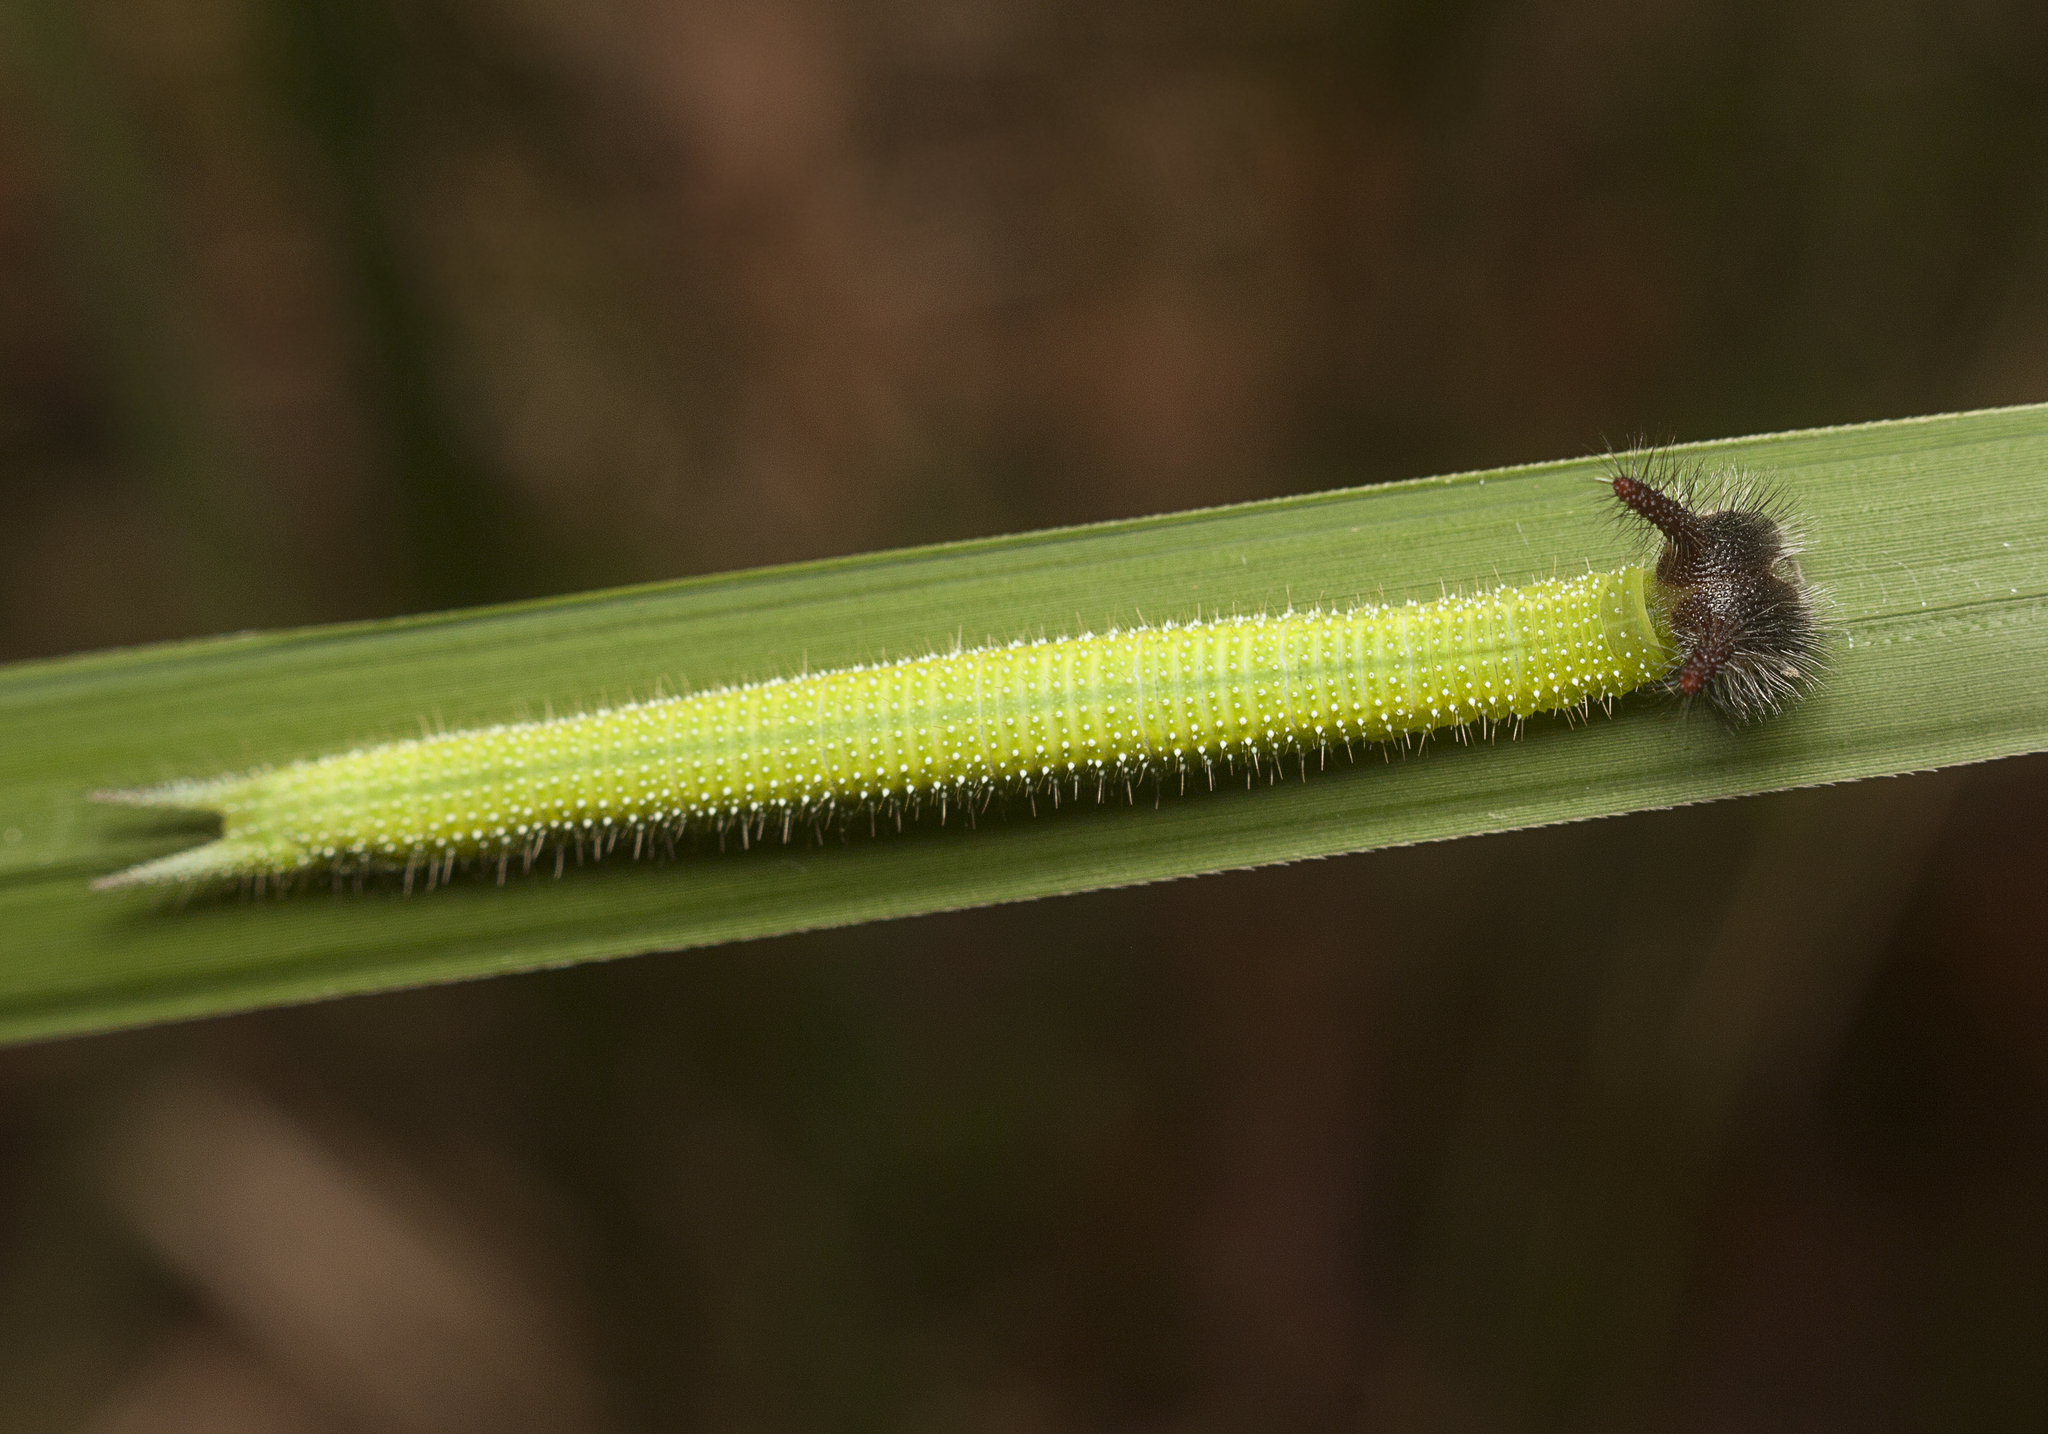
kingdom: Animalia
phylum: Arthropoda
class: Insecta
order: Lepidoptera
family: Nymphalidae
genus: Melanitis
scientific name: Melanitis leda
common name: Twilight brown
